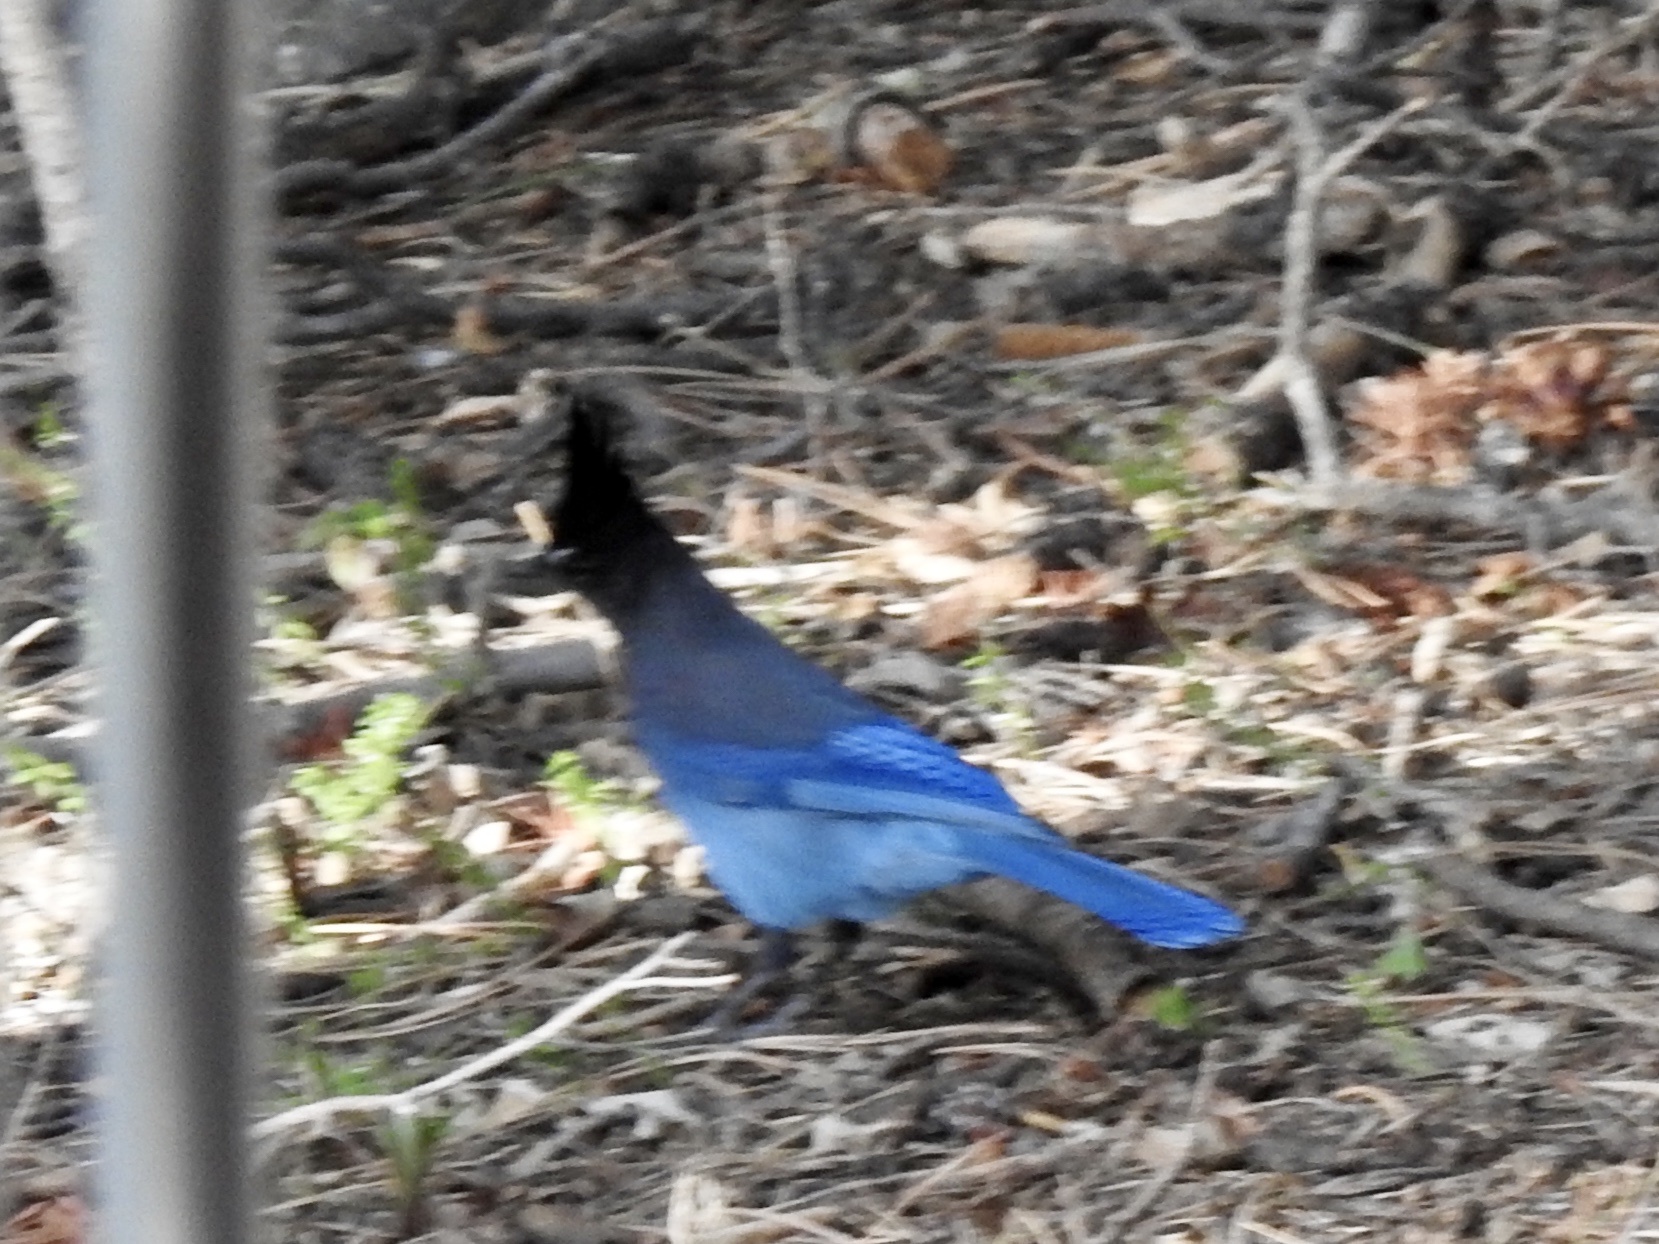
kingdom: Animalia
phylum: Chordata
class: Aves
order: Passeriformes
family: Corvidae
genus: Cyanocitta
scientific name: Cyanocitta stelleri
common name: Steller's jay
